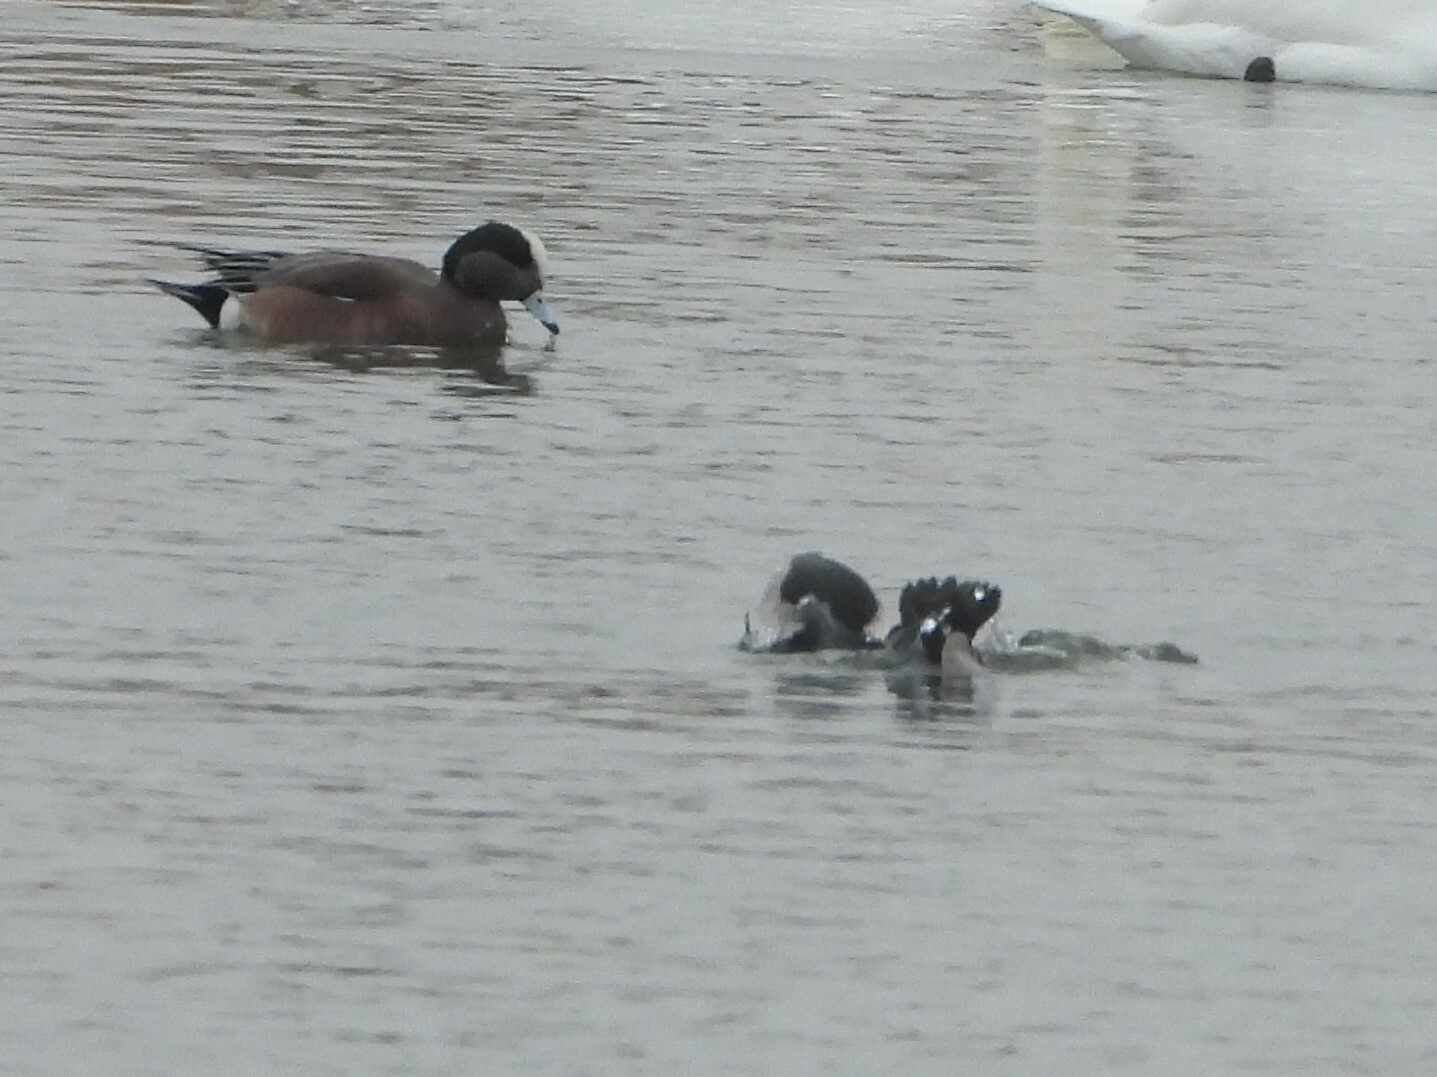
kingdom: Animalia
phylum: Chordata
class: Aves
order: Anseriformes
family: Anatidae
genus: Mareca
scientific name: Mareca americana
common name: American wigeon
